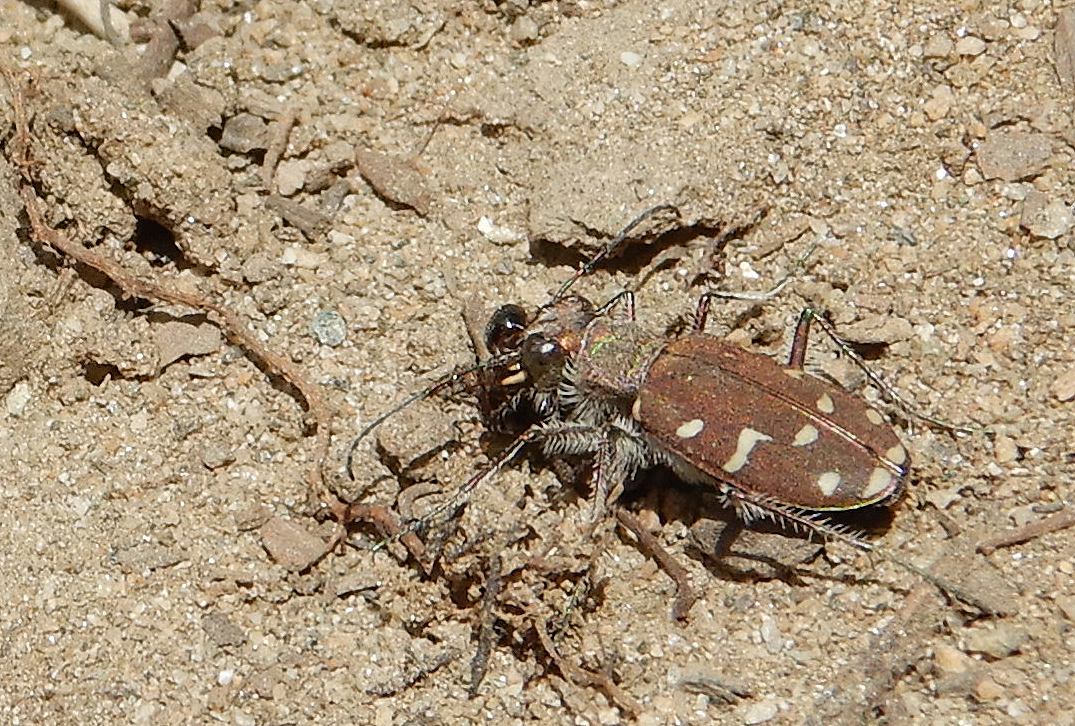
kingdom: Animalia
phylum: Arthropoda
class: Insecta
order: Coleoptera
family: Carabidae
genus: Cicindela
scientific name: Cicindela oregona
